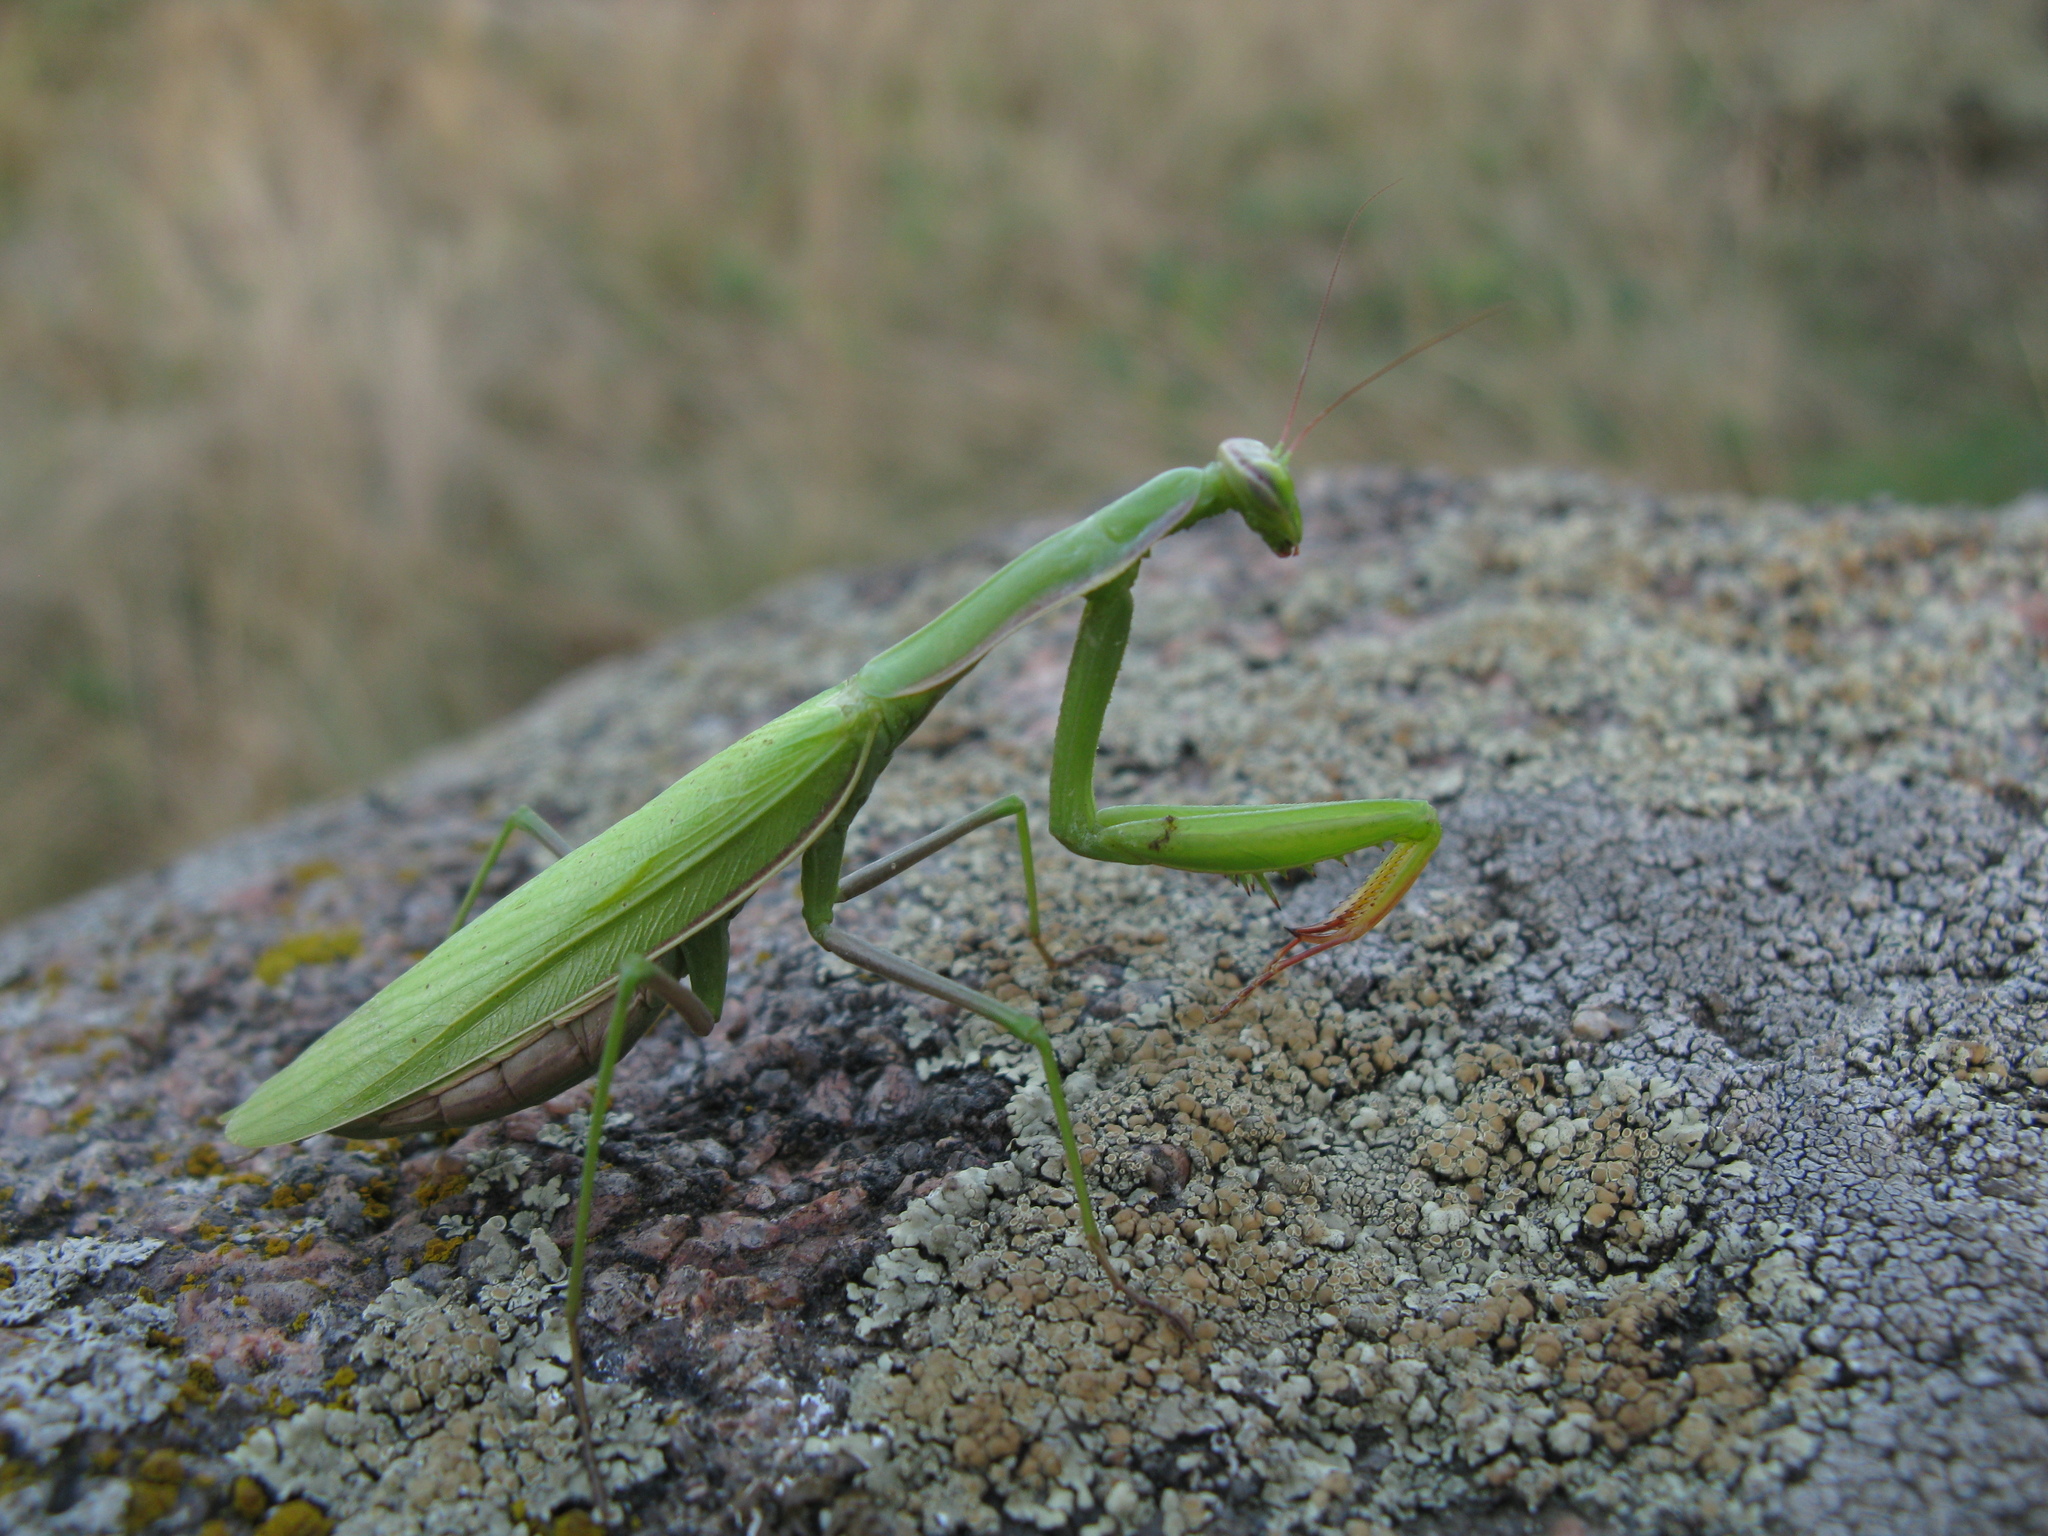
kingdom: Animalia
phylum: Arthropoda
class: Insecta
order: Mantodea
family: Mantidae
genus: Mantis
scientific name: Mantis religiosa
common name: Praying mantis
